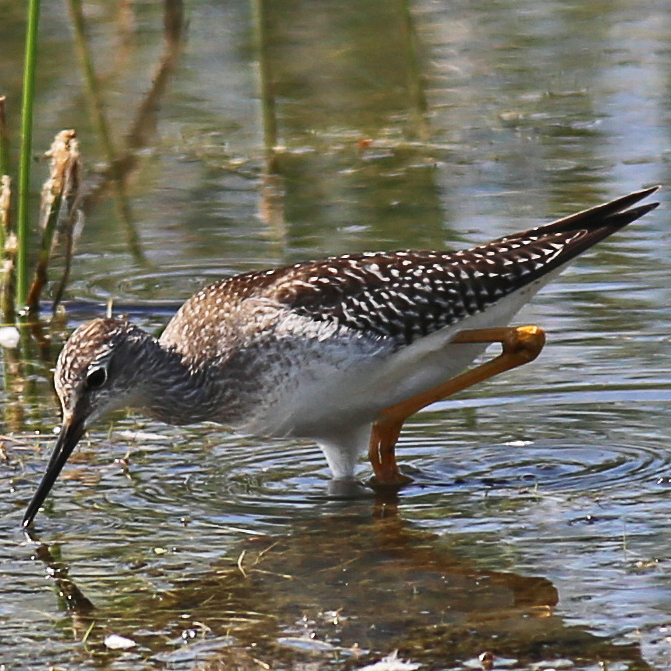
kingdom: Animalia
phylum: Chordata
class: Aves
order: Charadriiformes
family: Scolopacidae
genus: Tringa
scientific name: Tringa flavipes
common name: Lesser yellowlegs
